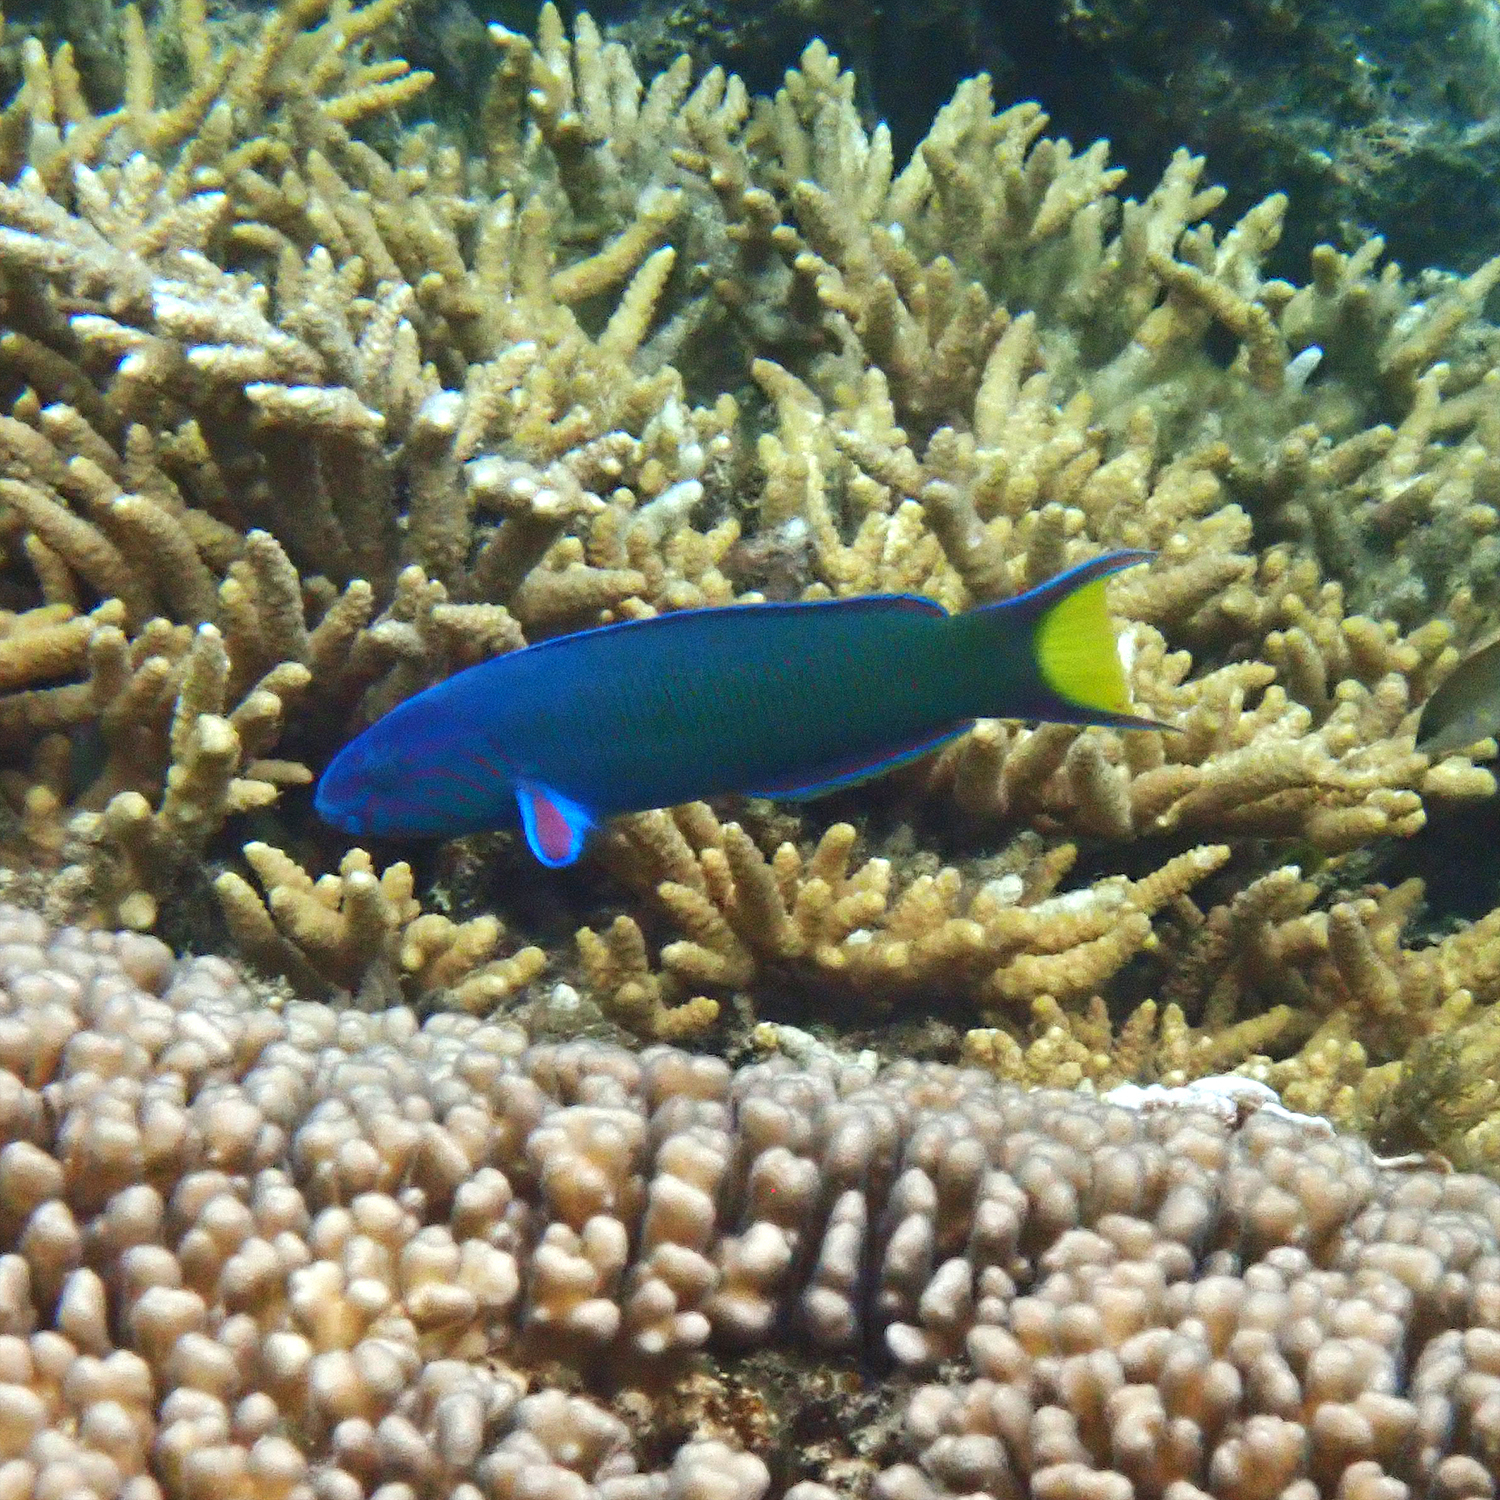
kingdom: Animalia
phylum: Chordata
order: Perciformes
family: Labridae
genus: Thalassoma
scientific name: Thalassoma lunare
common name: Blue wrasse
